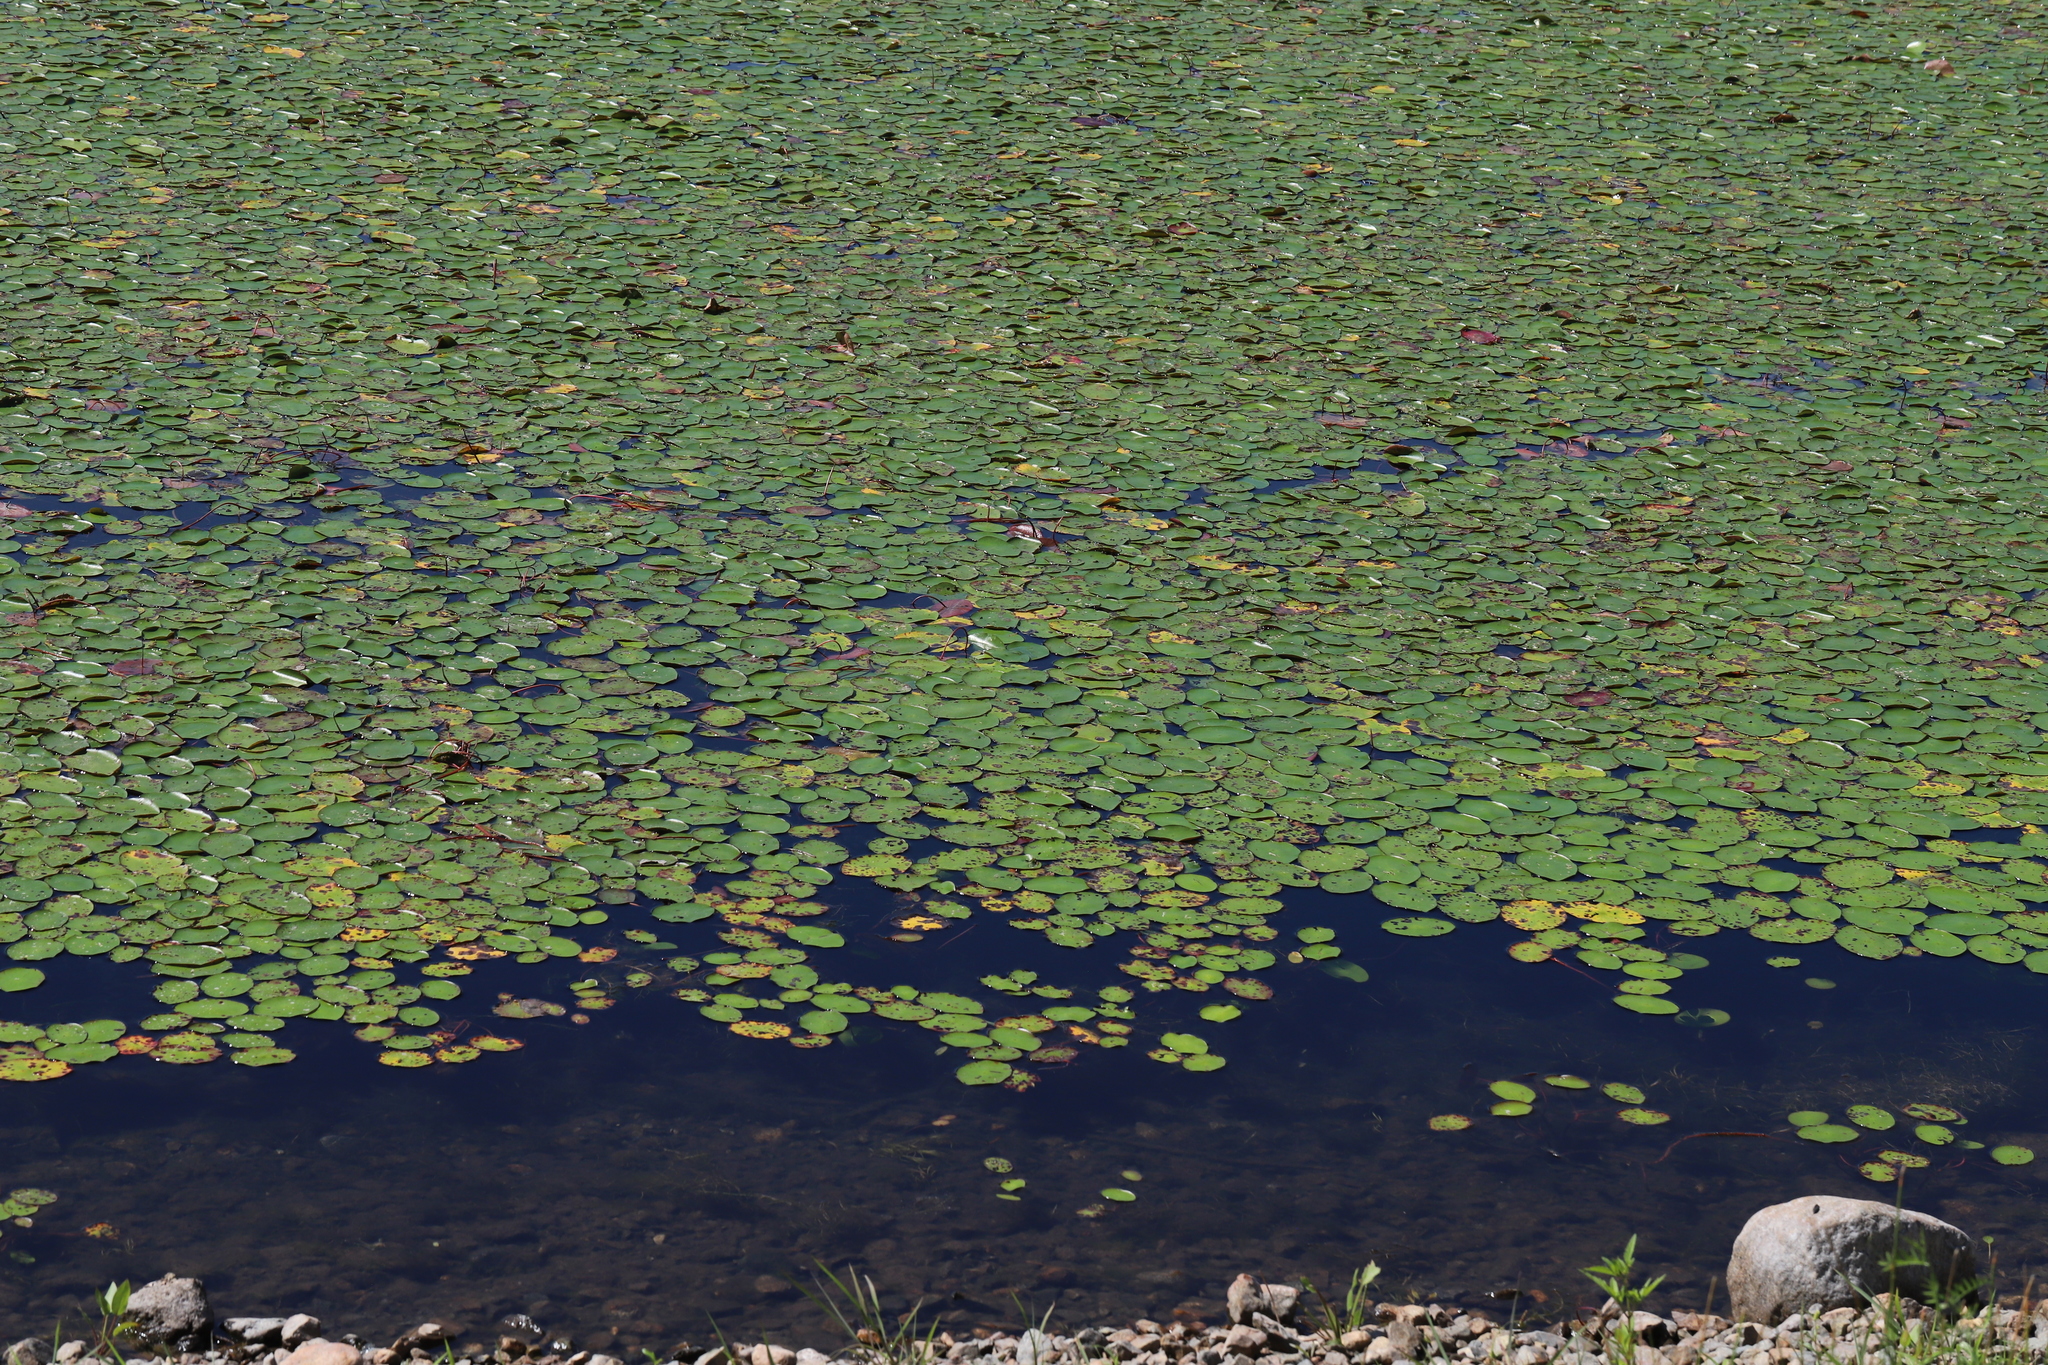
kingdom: Plantae
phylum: Tracheophyta
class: Magnoliopsida
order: Nymphaeales
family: Cabombaceae
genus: Brasenia
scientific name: Brasenia schreberi
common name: Water-shield
